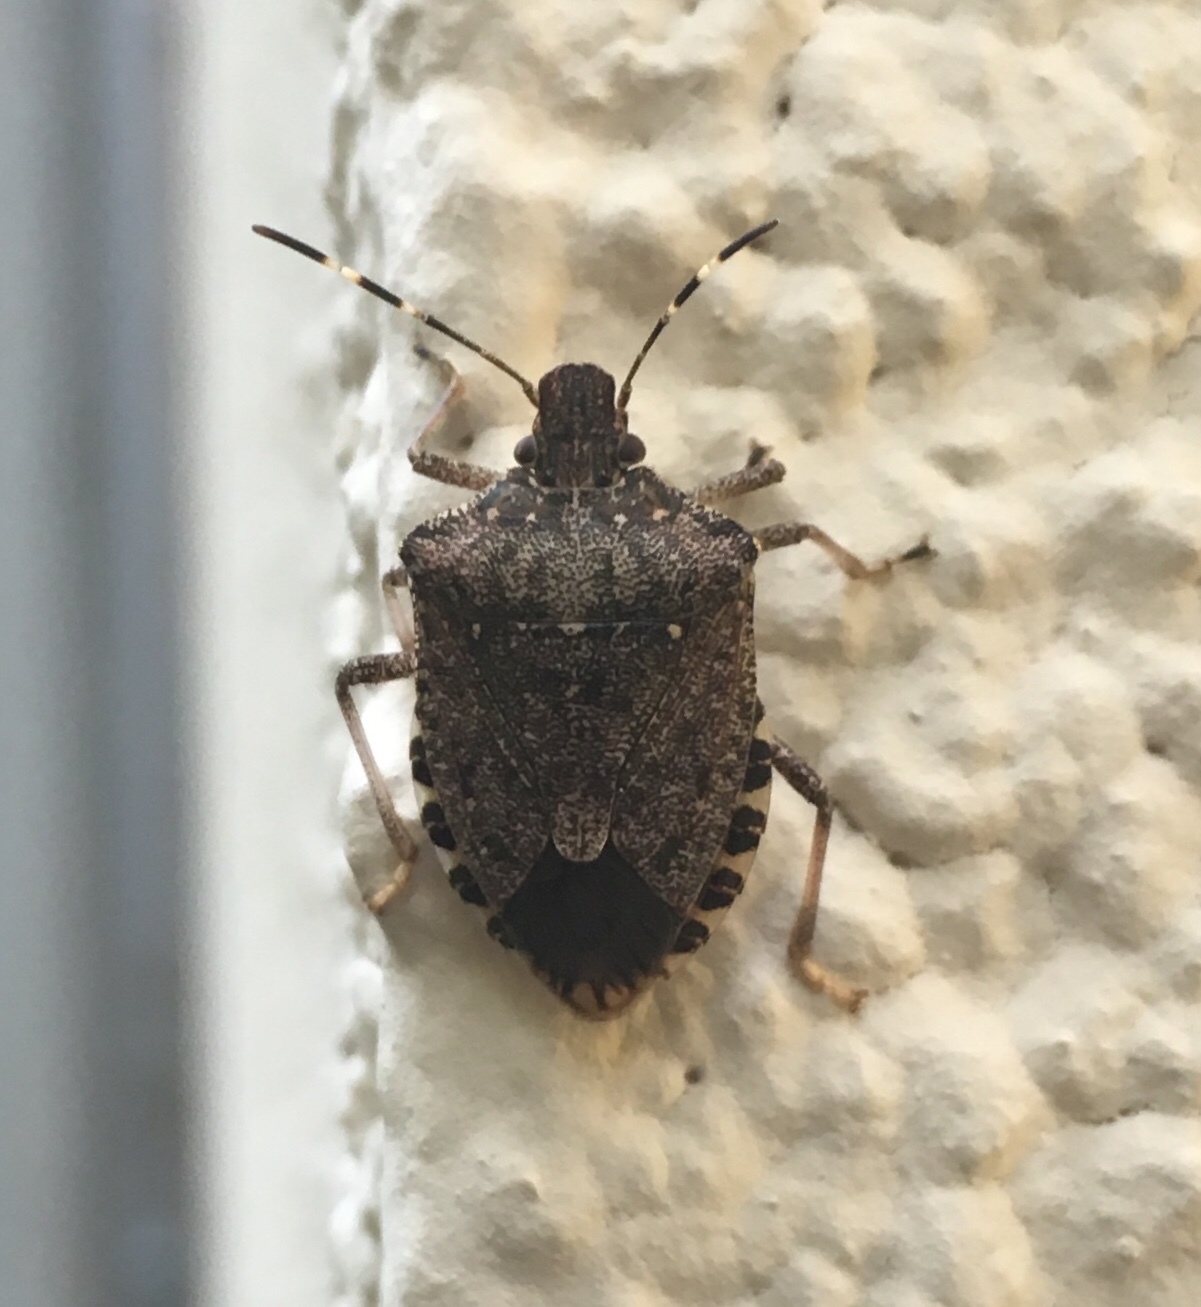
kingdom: Animalia
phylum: Arthropoda
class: Insecta
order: Hemiptera
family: Pentatomidae
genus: Halyomorpha
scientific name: Halyomorpha halys
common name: Brown marmorated stink bug
